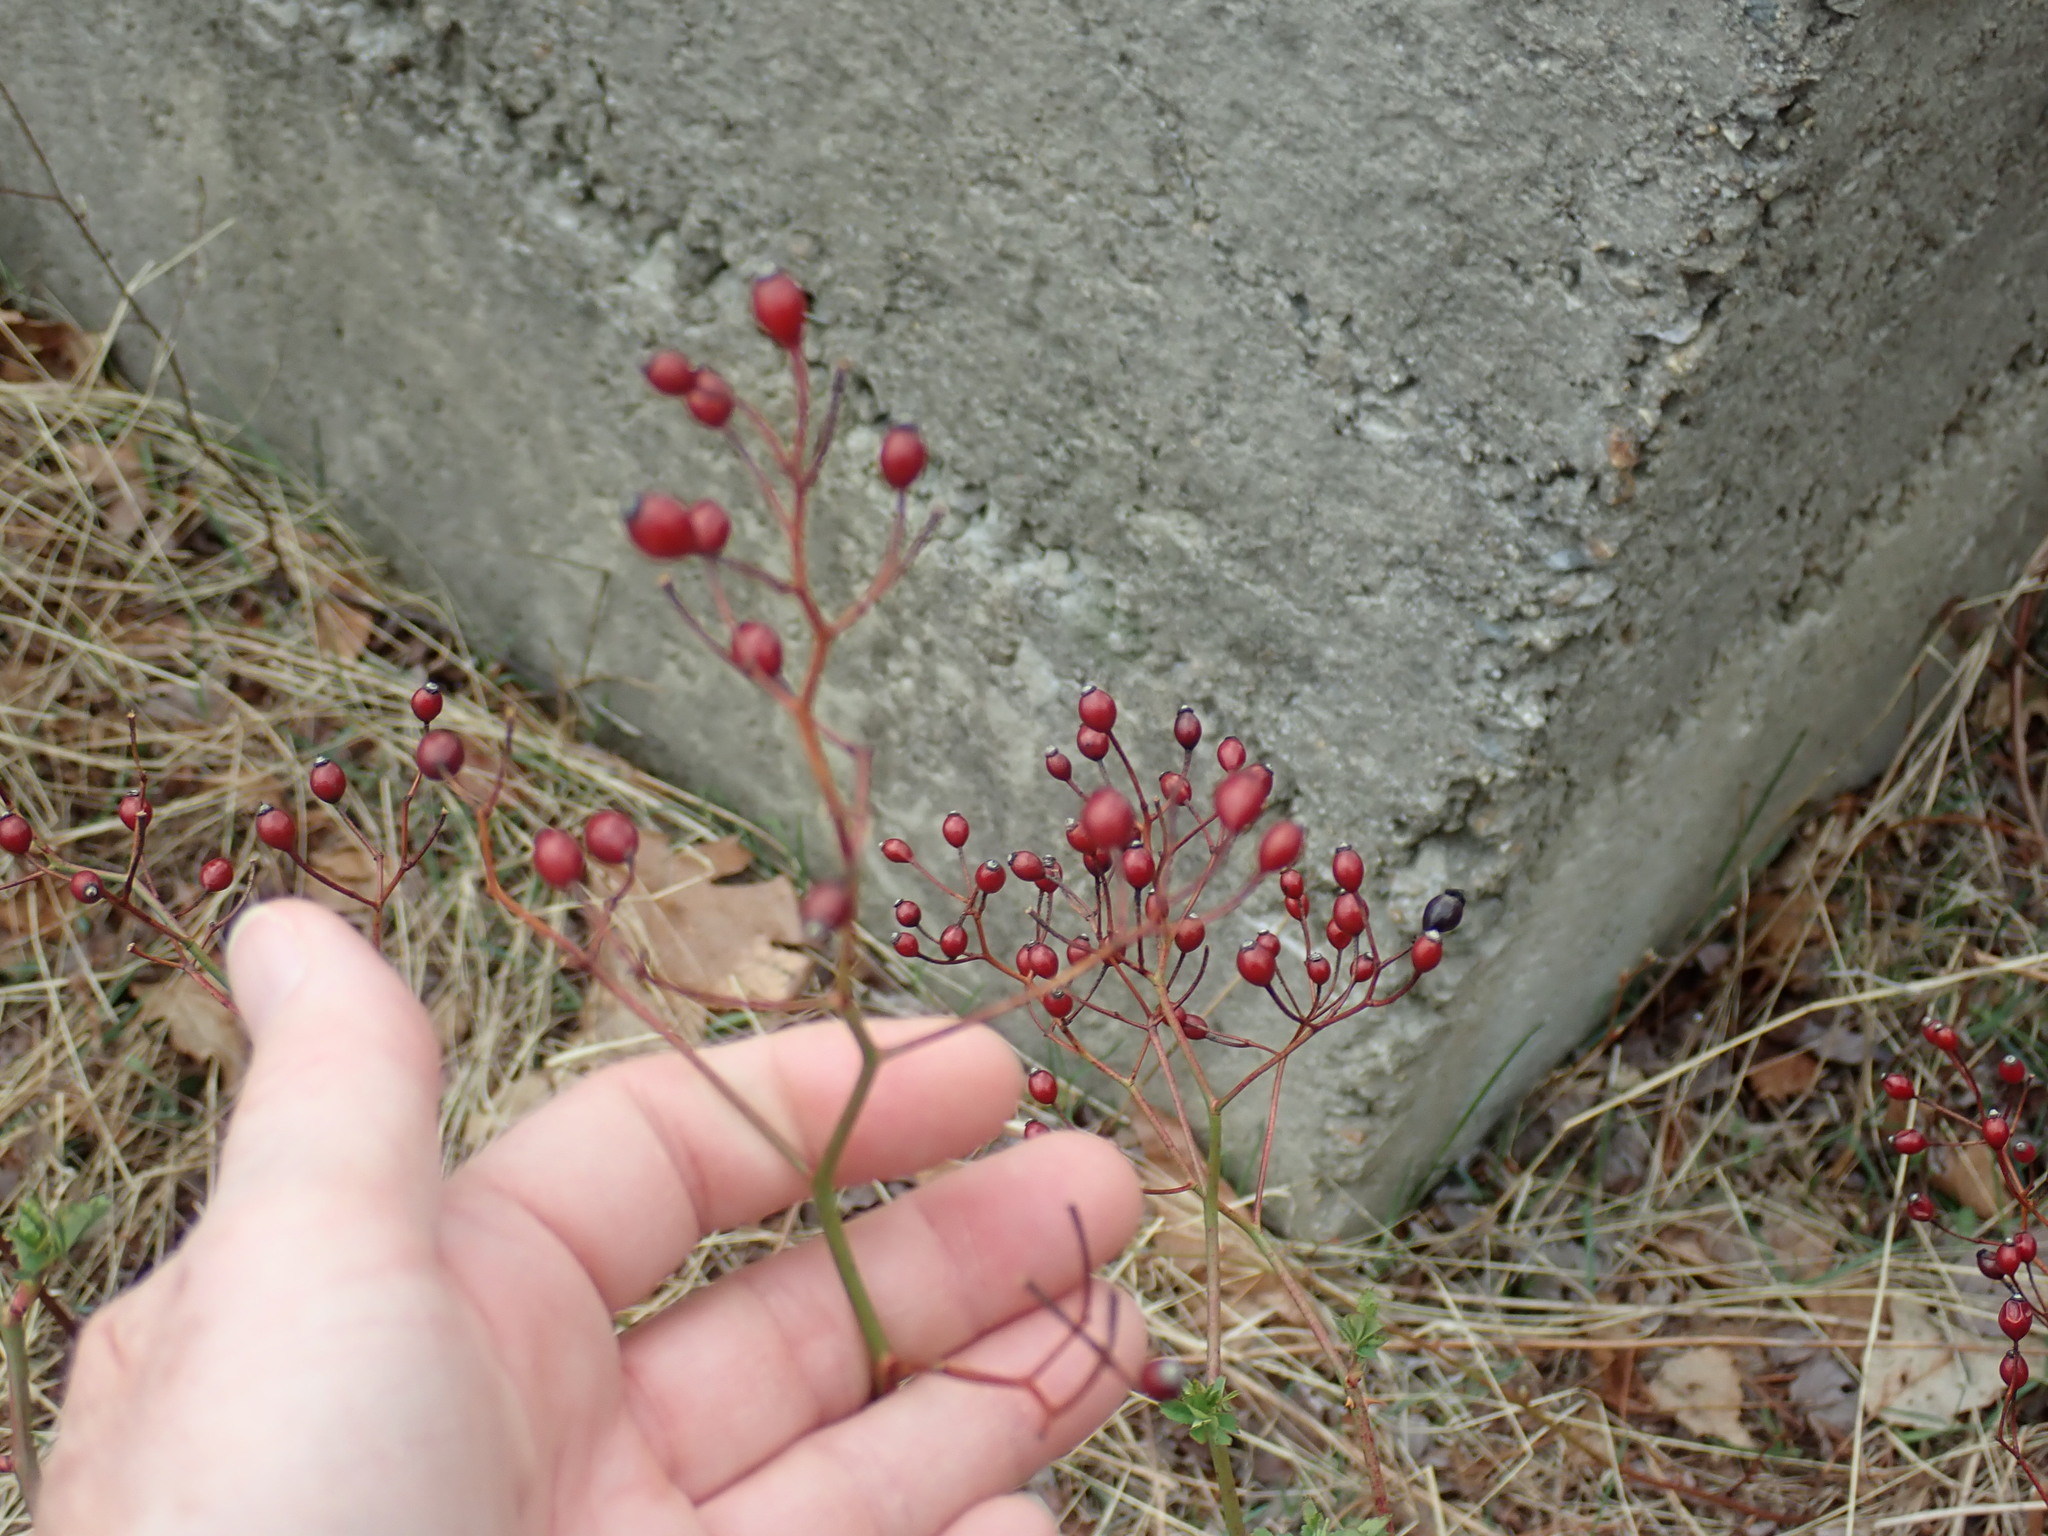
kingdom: Plantae
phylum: Tracheophyta
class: Magnoliopsida
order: Rosales
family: Rosaceae
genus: Rosa
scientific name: Rosa multiflora
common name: Multiflora rose
